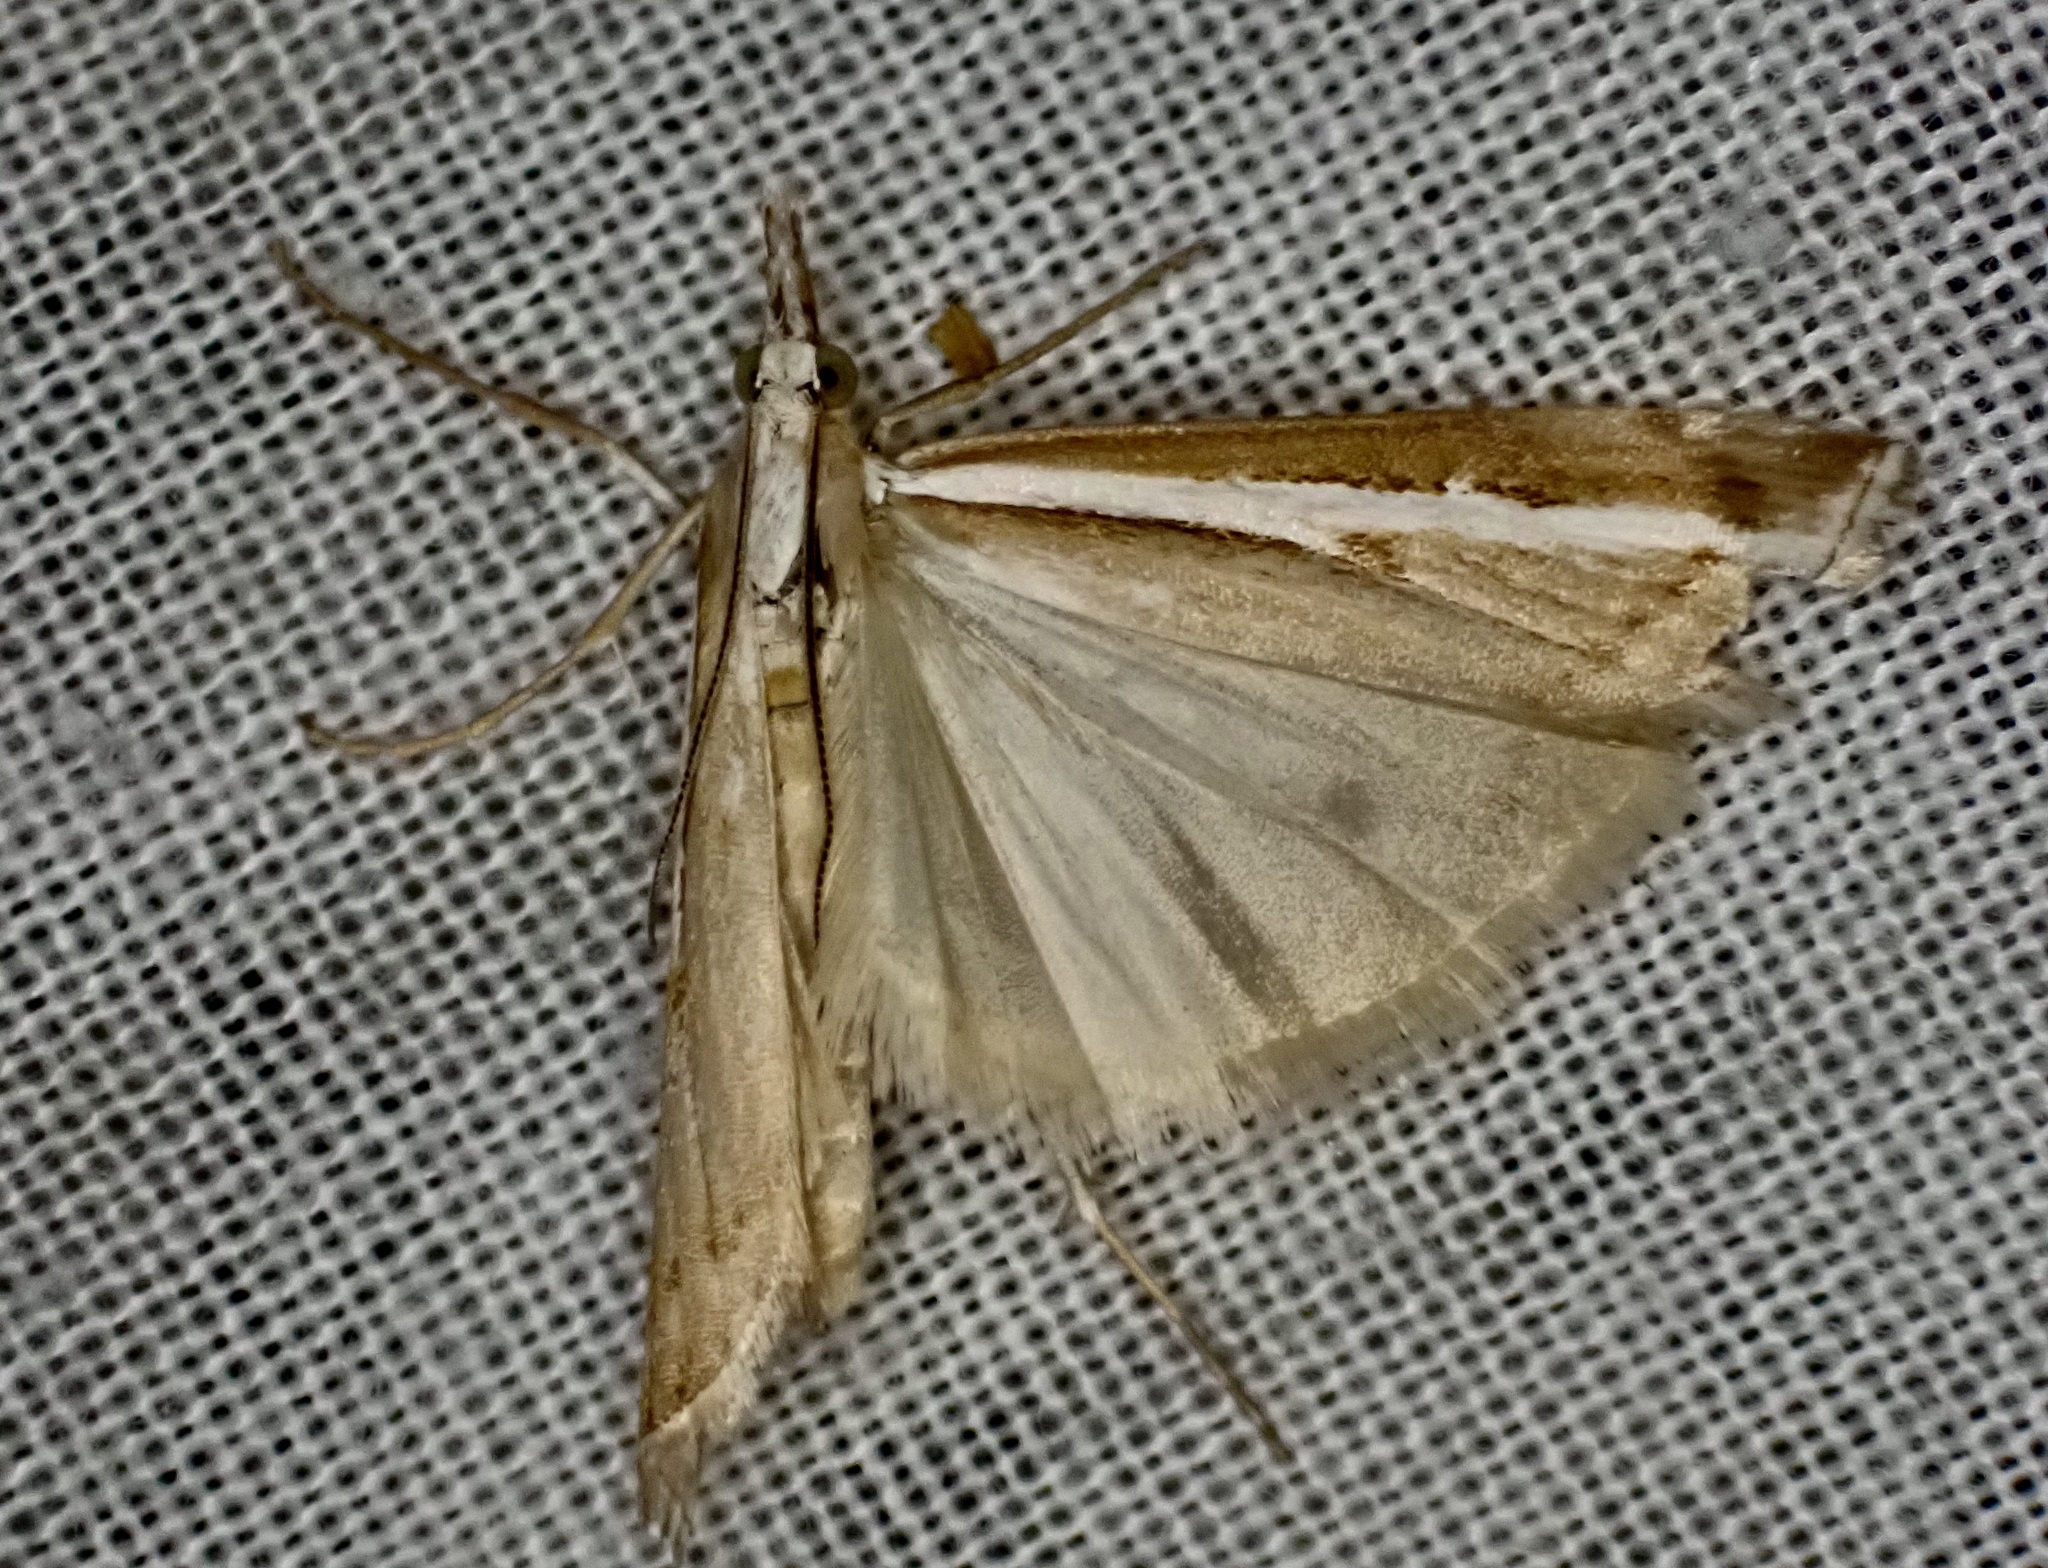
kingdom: Animalia
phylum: Arthropoda
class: Insecta
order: Lepidoptera
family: Crambidae
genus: Orocrambus
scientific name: Orocrambus vittellus
